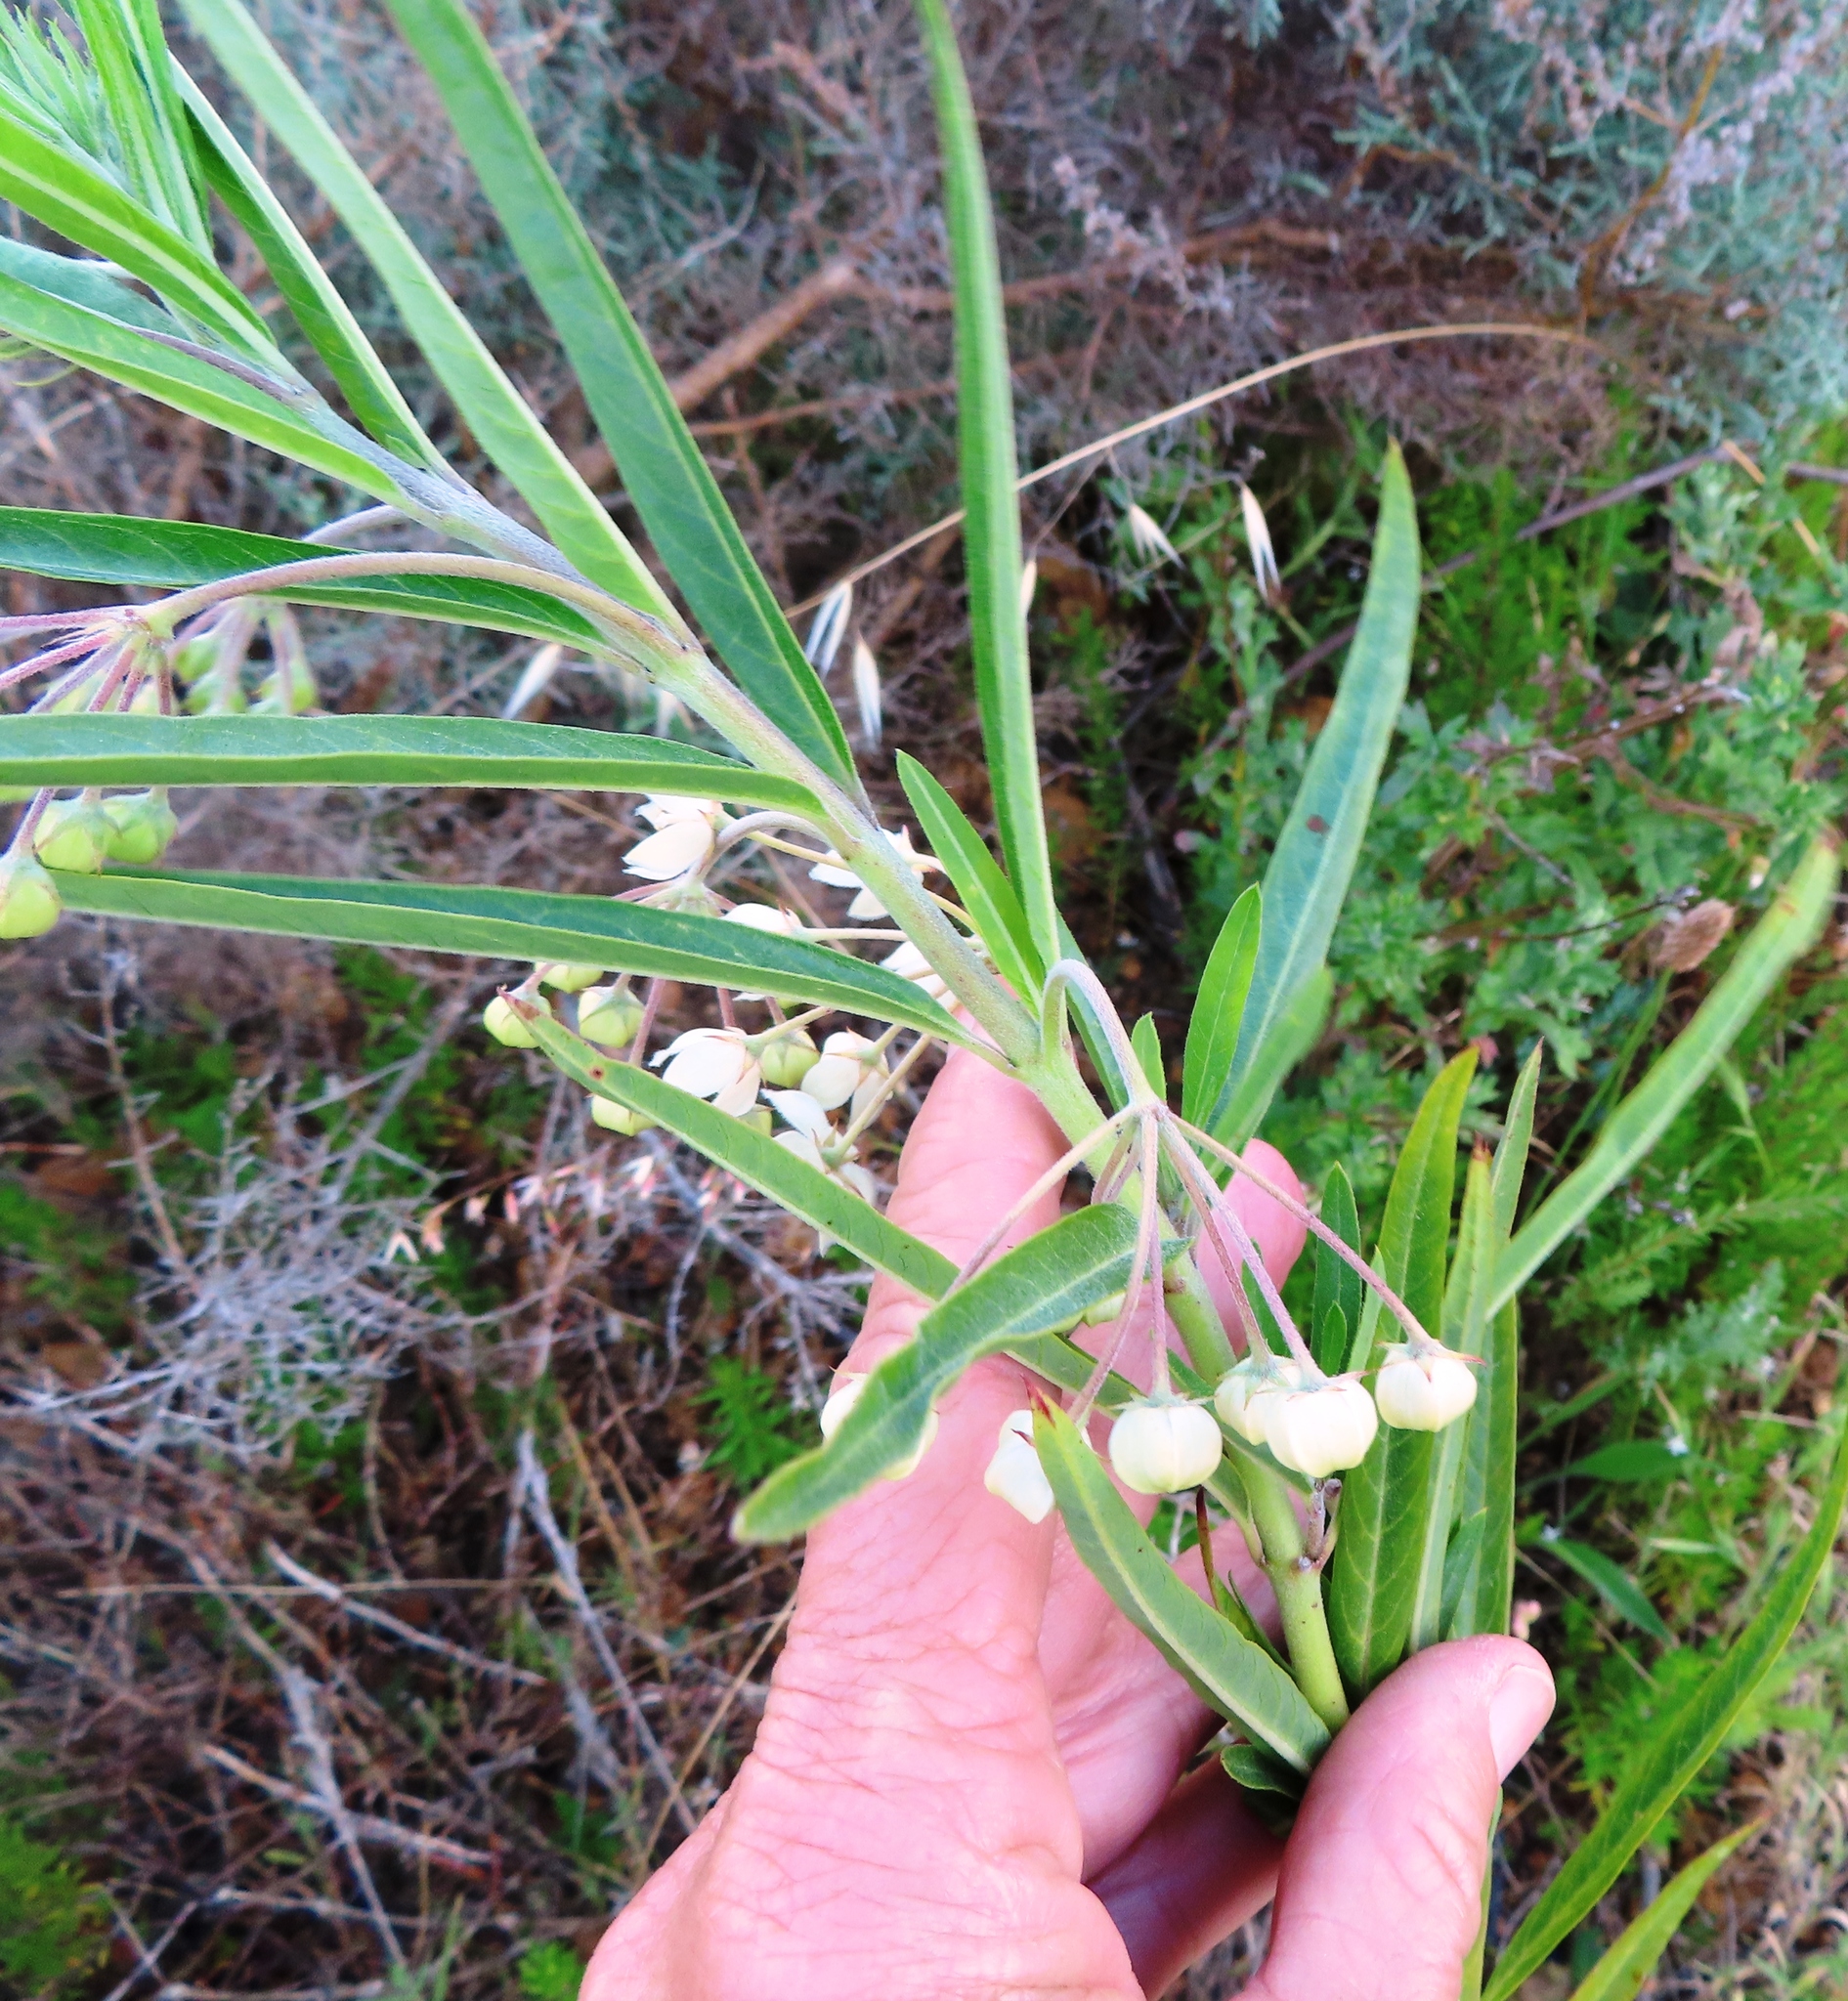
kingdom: Plantae
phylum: Tracheophyta
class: Magnoliopsida
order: Gentianales
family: Apocynaceae
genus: Gomphocarpus
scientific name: Gomphocarpus fruticosus
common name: Milkweed
